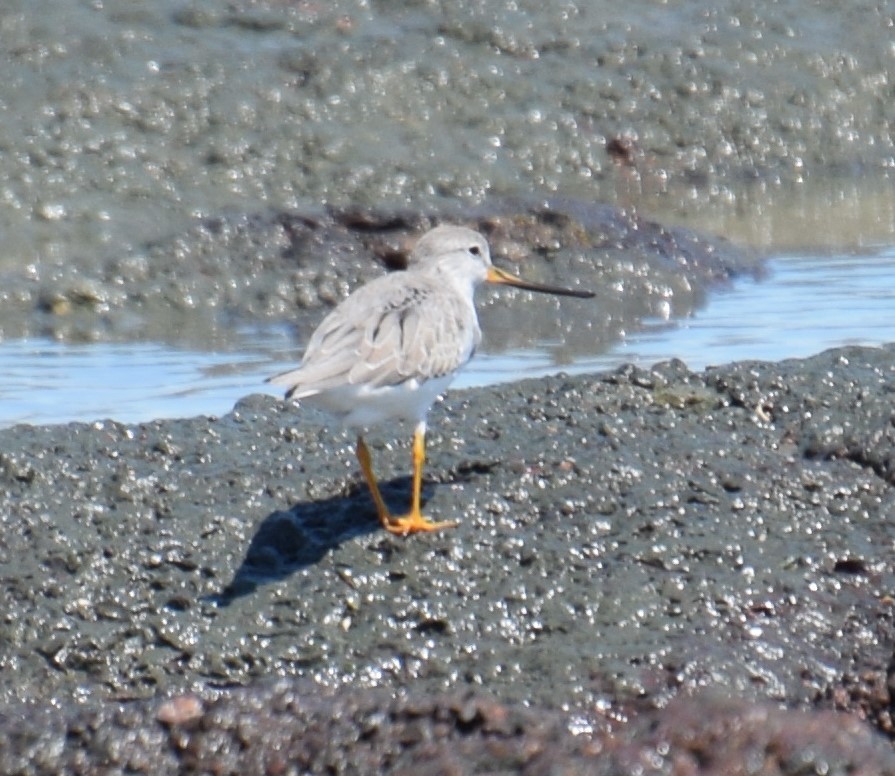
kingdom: Animalia
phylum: Chordata
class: Aves
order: Charadriiformes
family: Scolopacidae
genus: Xenus
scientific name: Xenus cinereus
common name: Terek sandpiper
